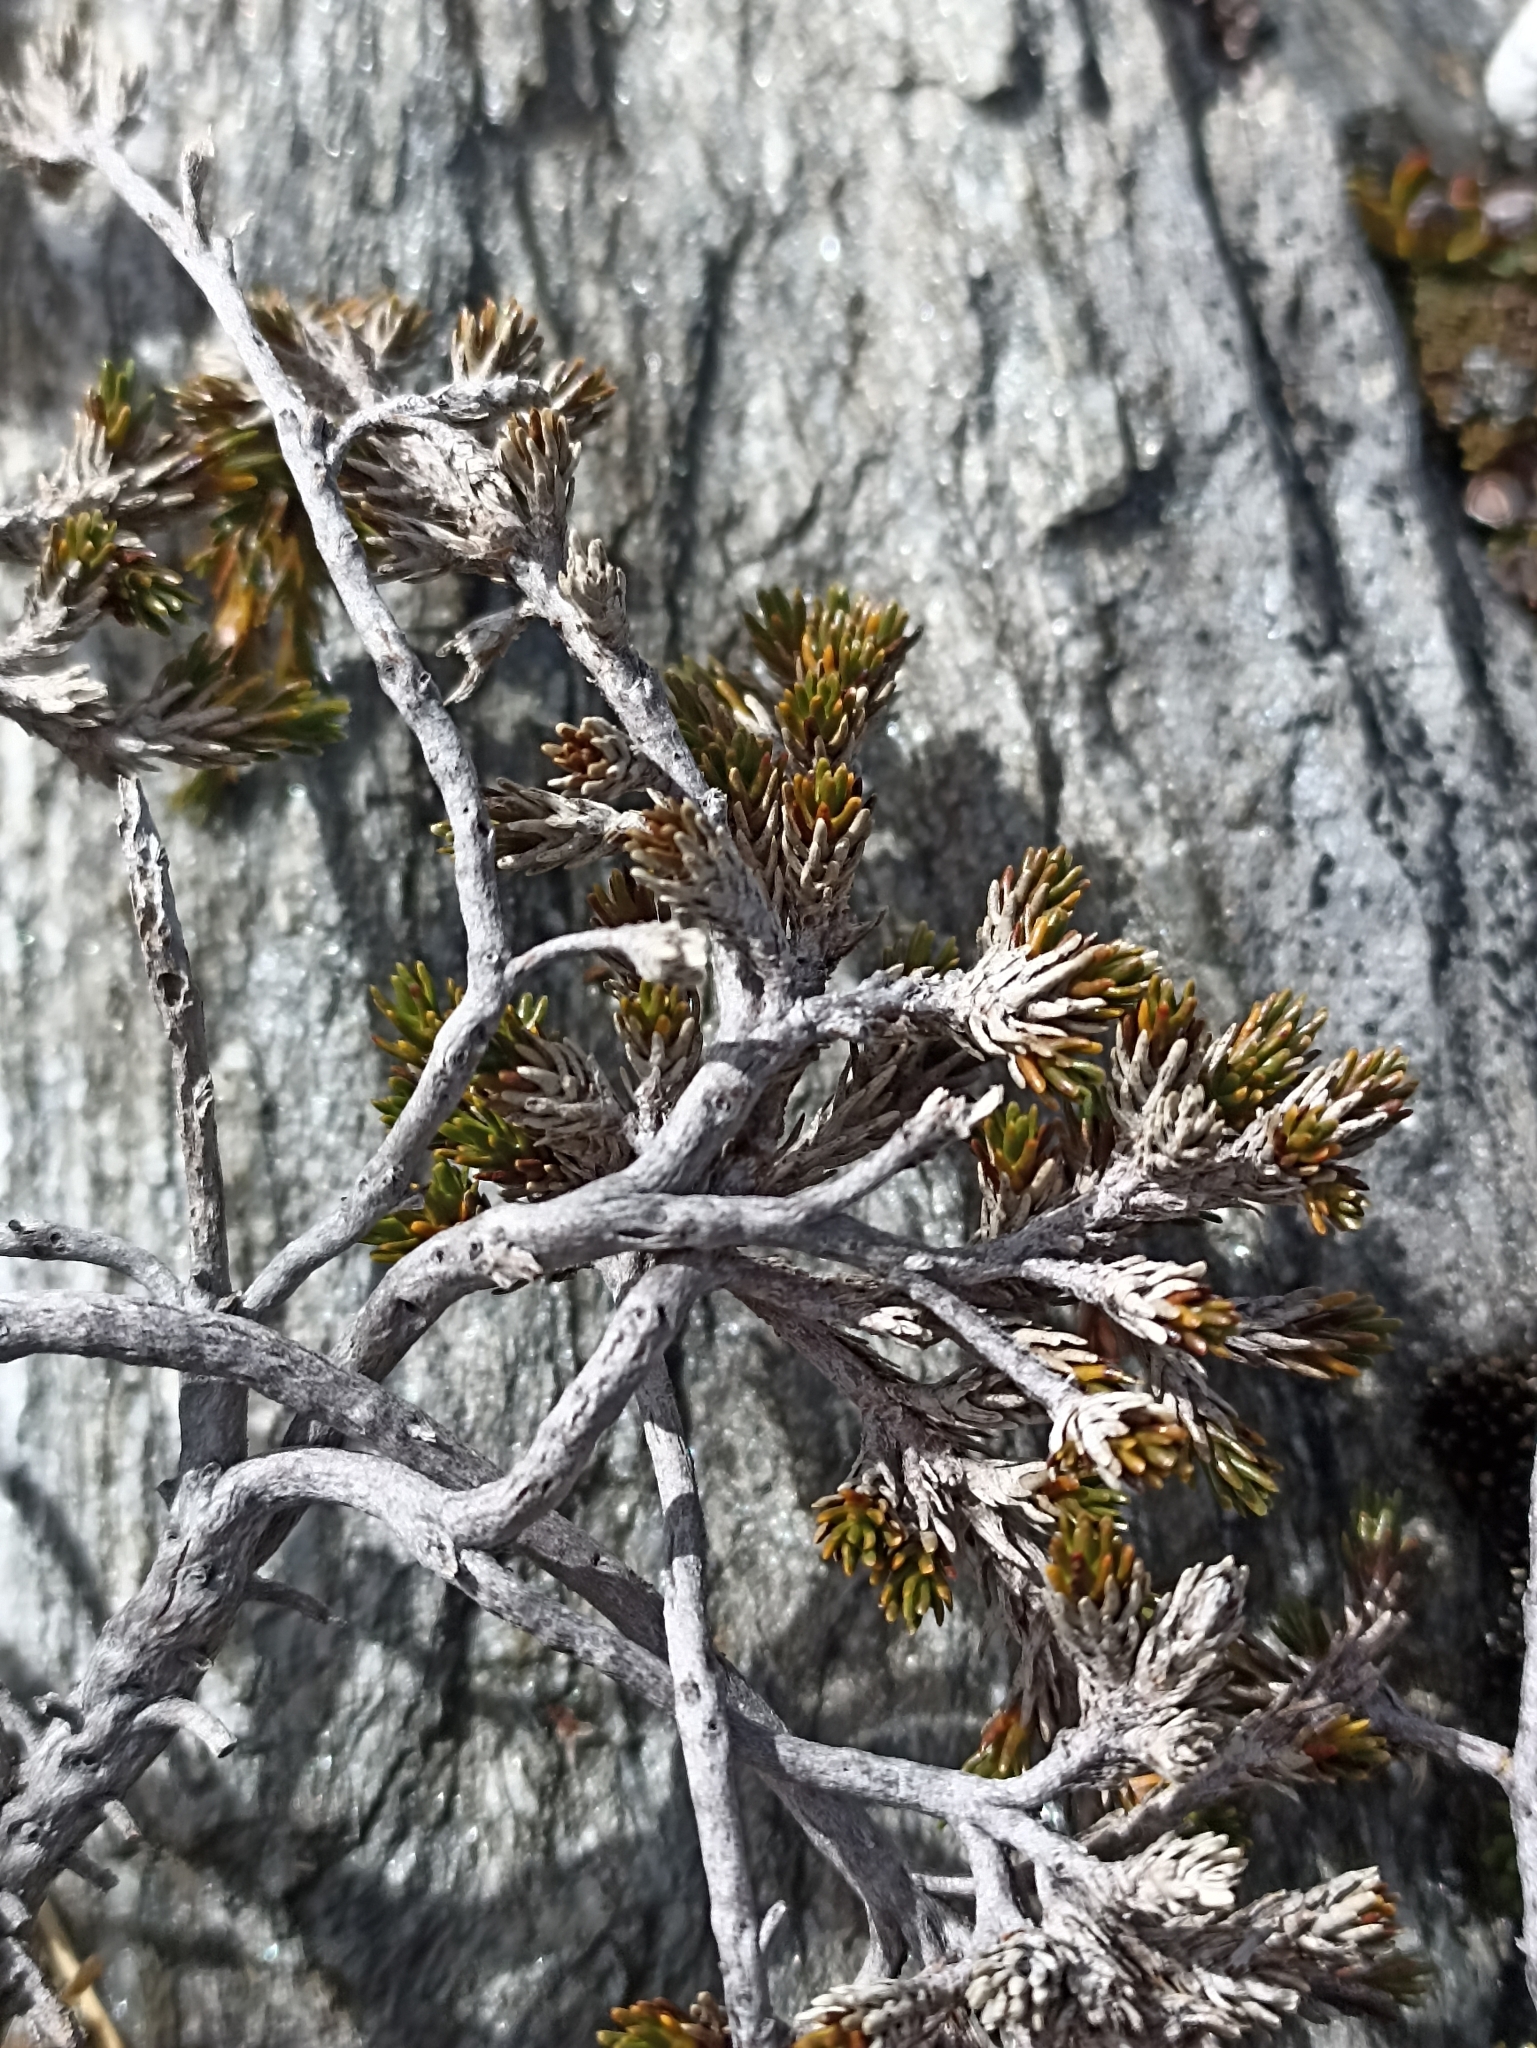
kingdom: Plantae
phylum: Tracheophyta
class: Magnoliopsida
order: Ericales
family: Ericaceae
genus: Dracophyllum
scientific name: Dracophyllum muscoides
